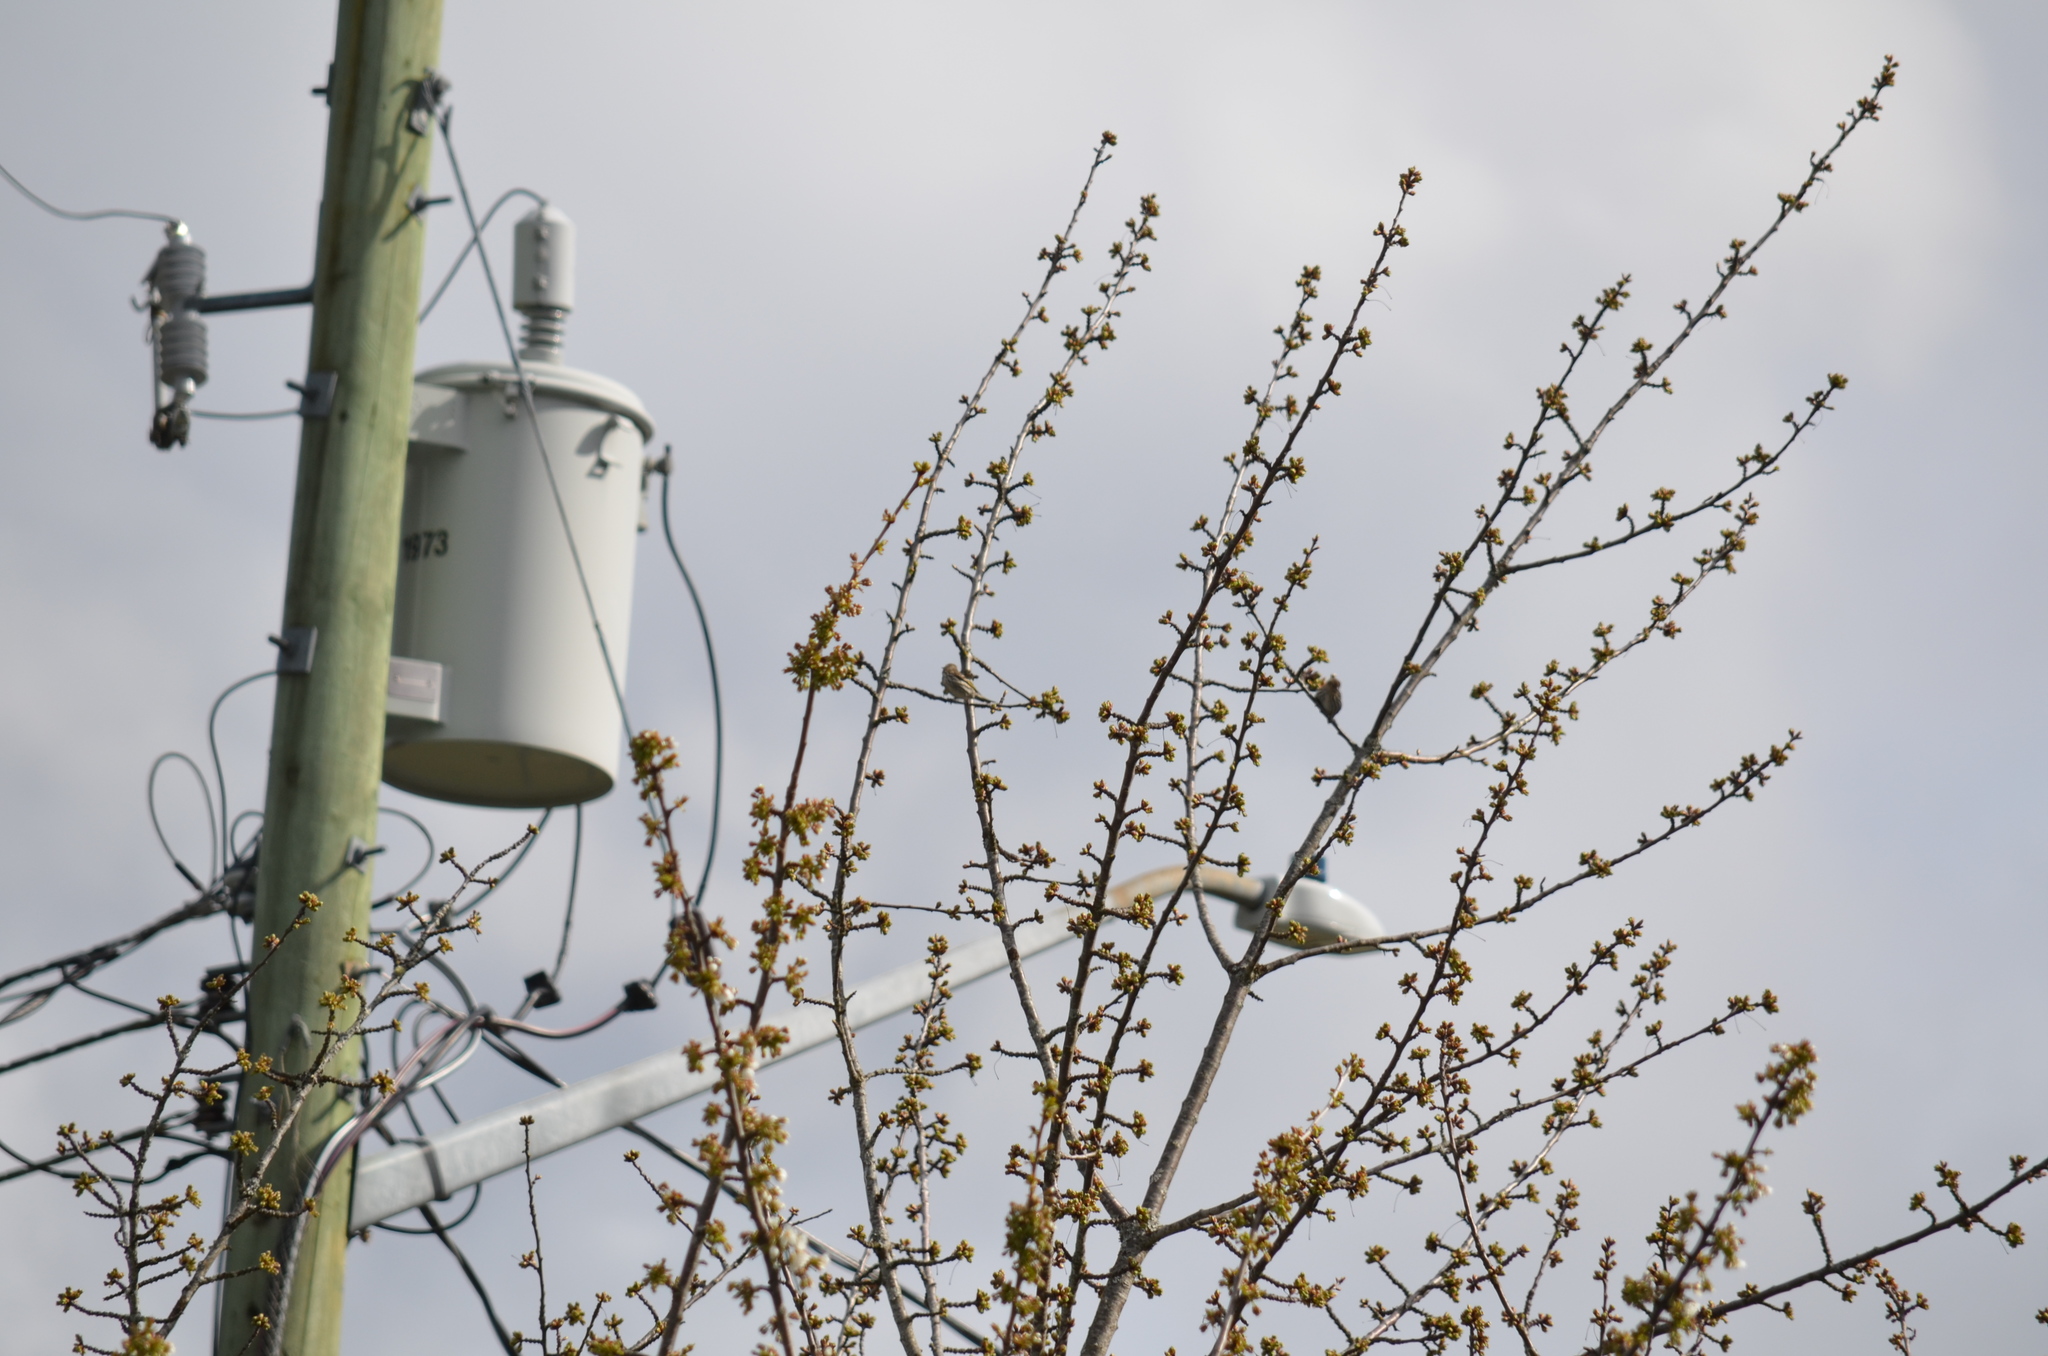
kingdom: Animalia
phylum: Chordata
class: Aves
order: Passeriformes
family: Fringillidae
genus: Spinus
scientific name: Spinus pinus
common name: Pine siskin
